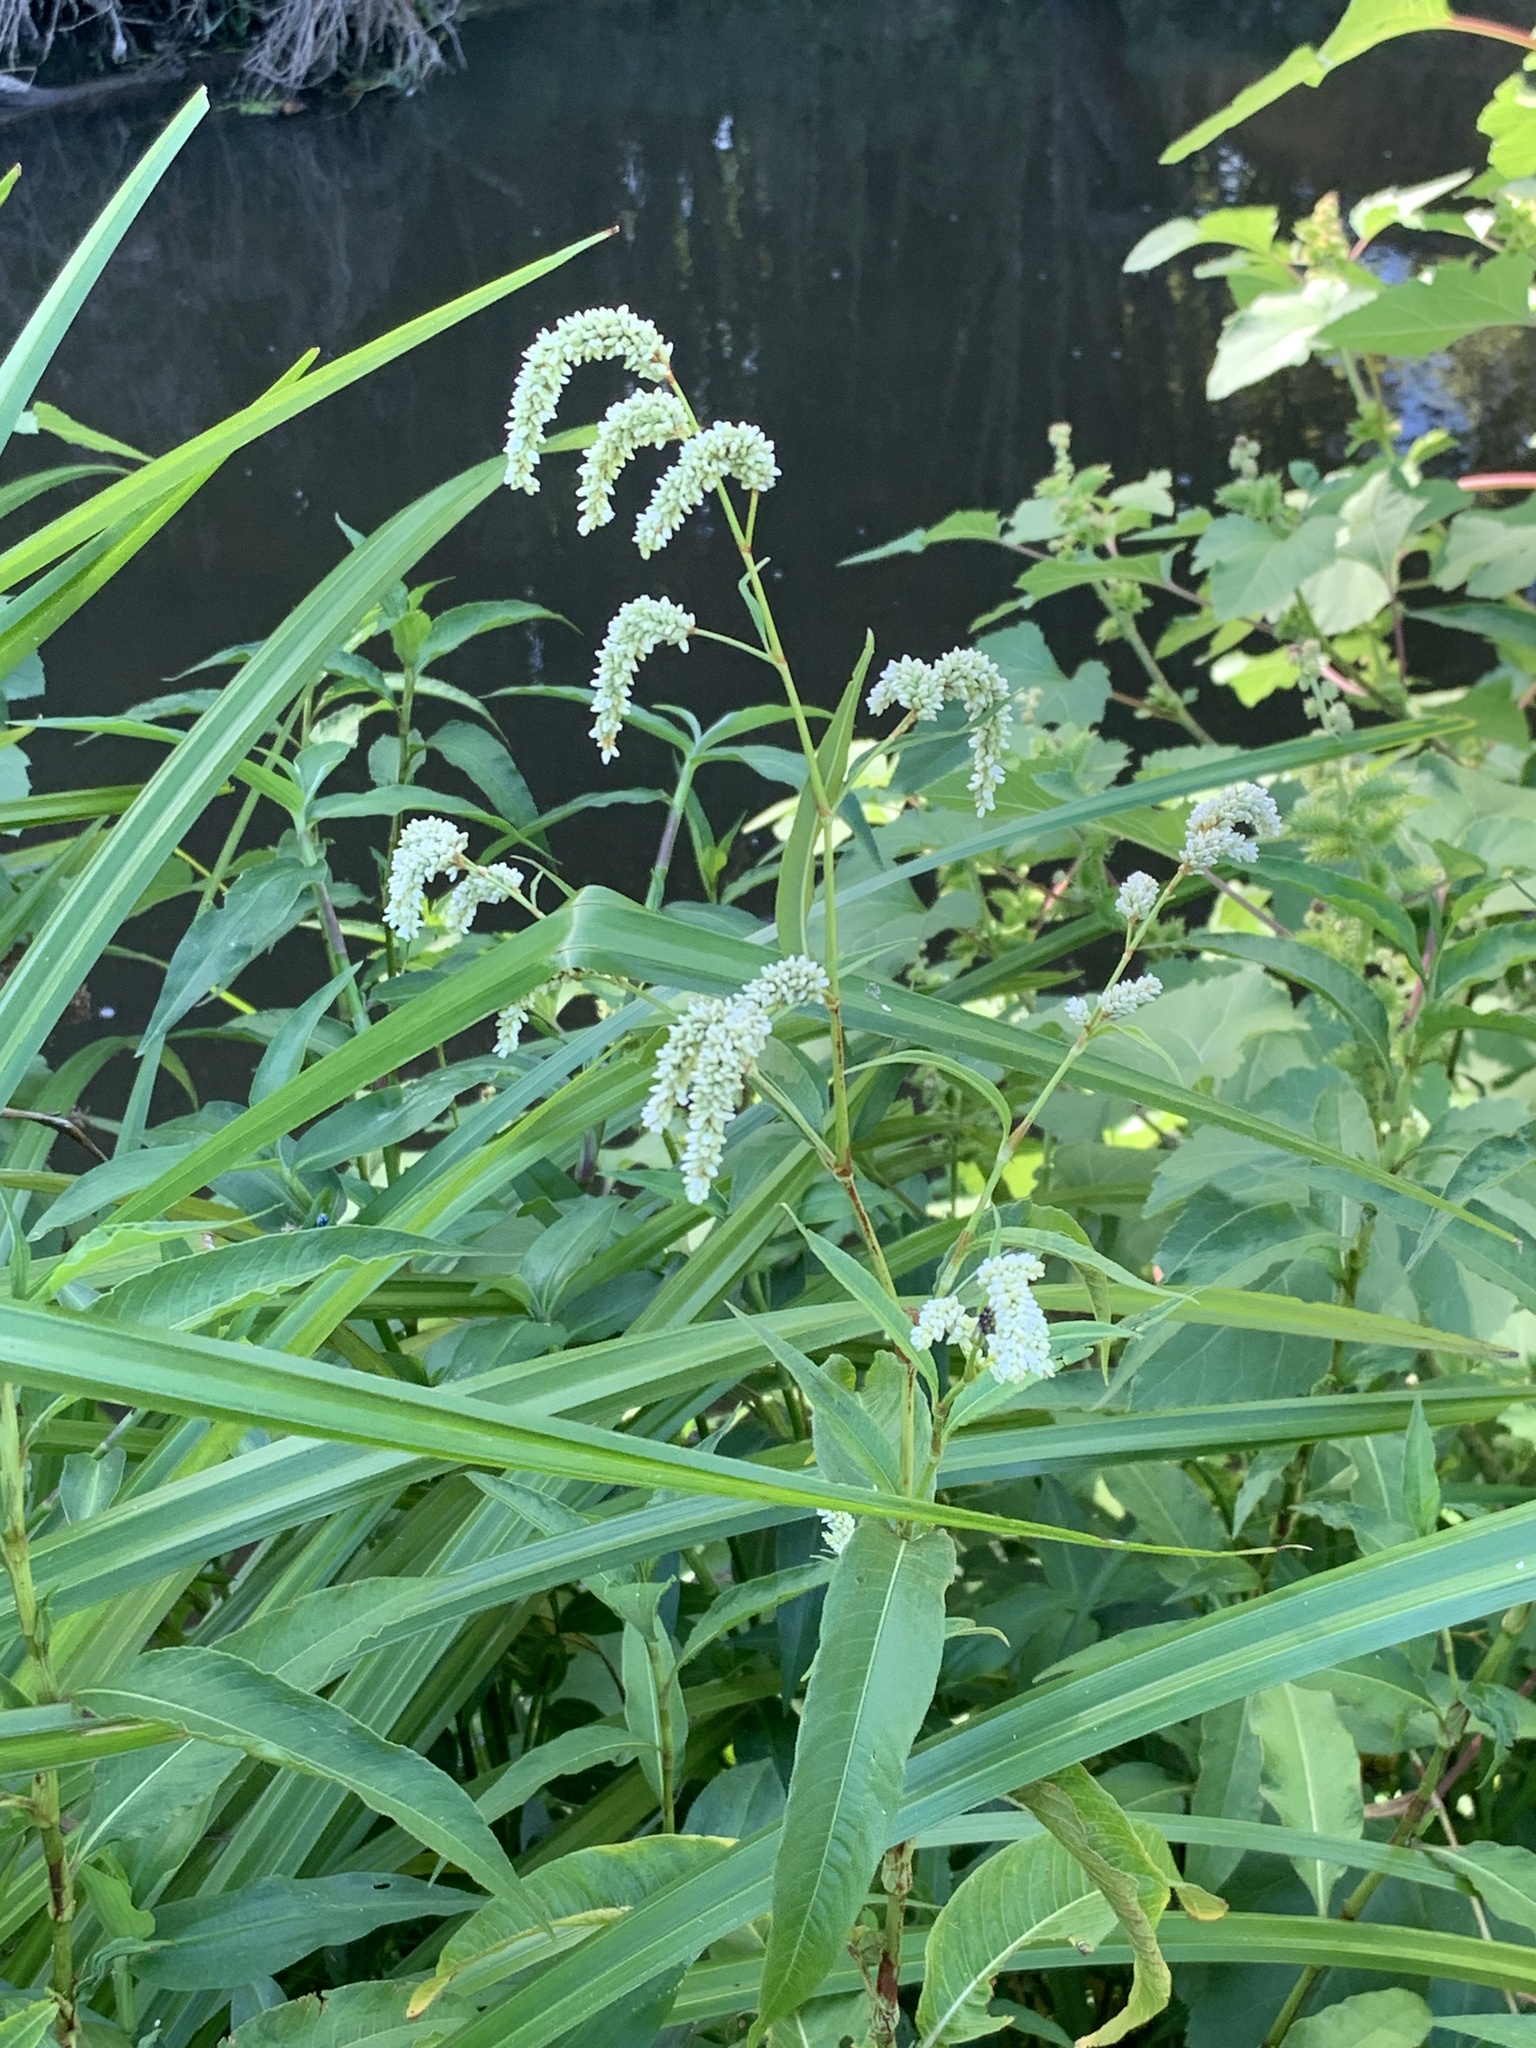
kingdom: Plantae
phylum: Tracheophyta
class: Magnoliopsida
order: Caryophyllales
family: Polygonaceae
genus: Persicaria
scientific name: Persicaria lapathifolia
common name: Curlytop knotweed
